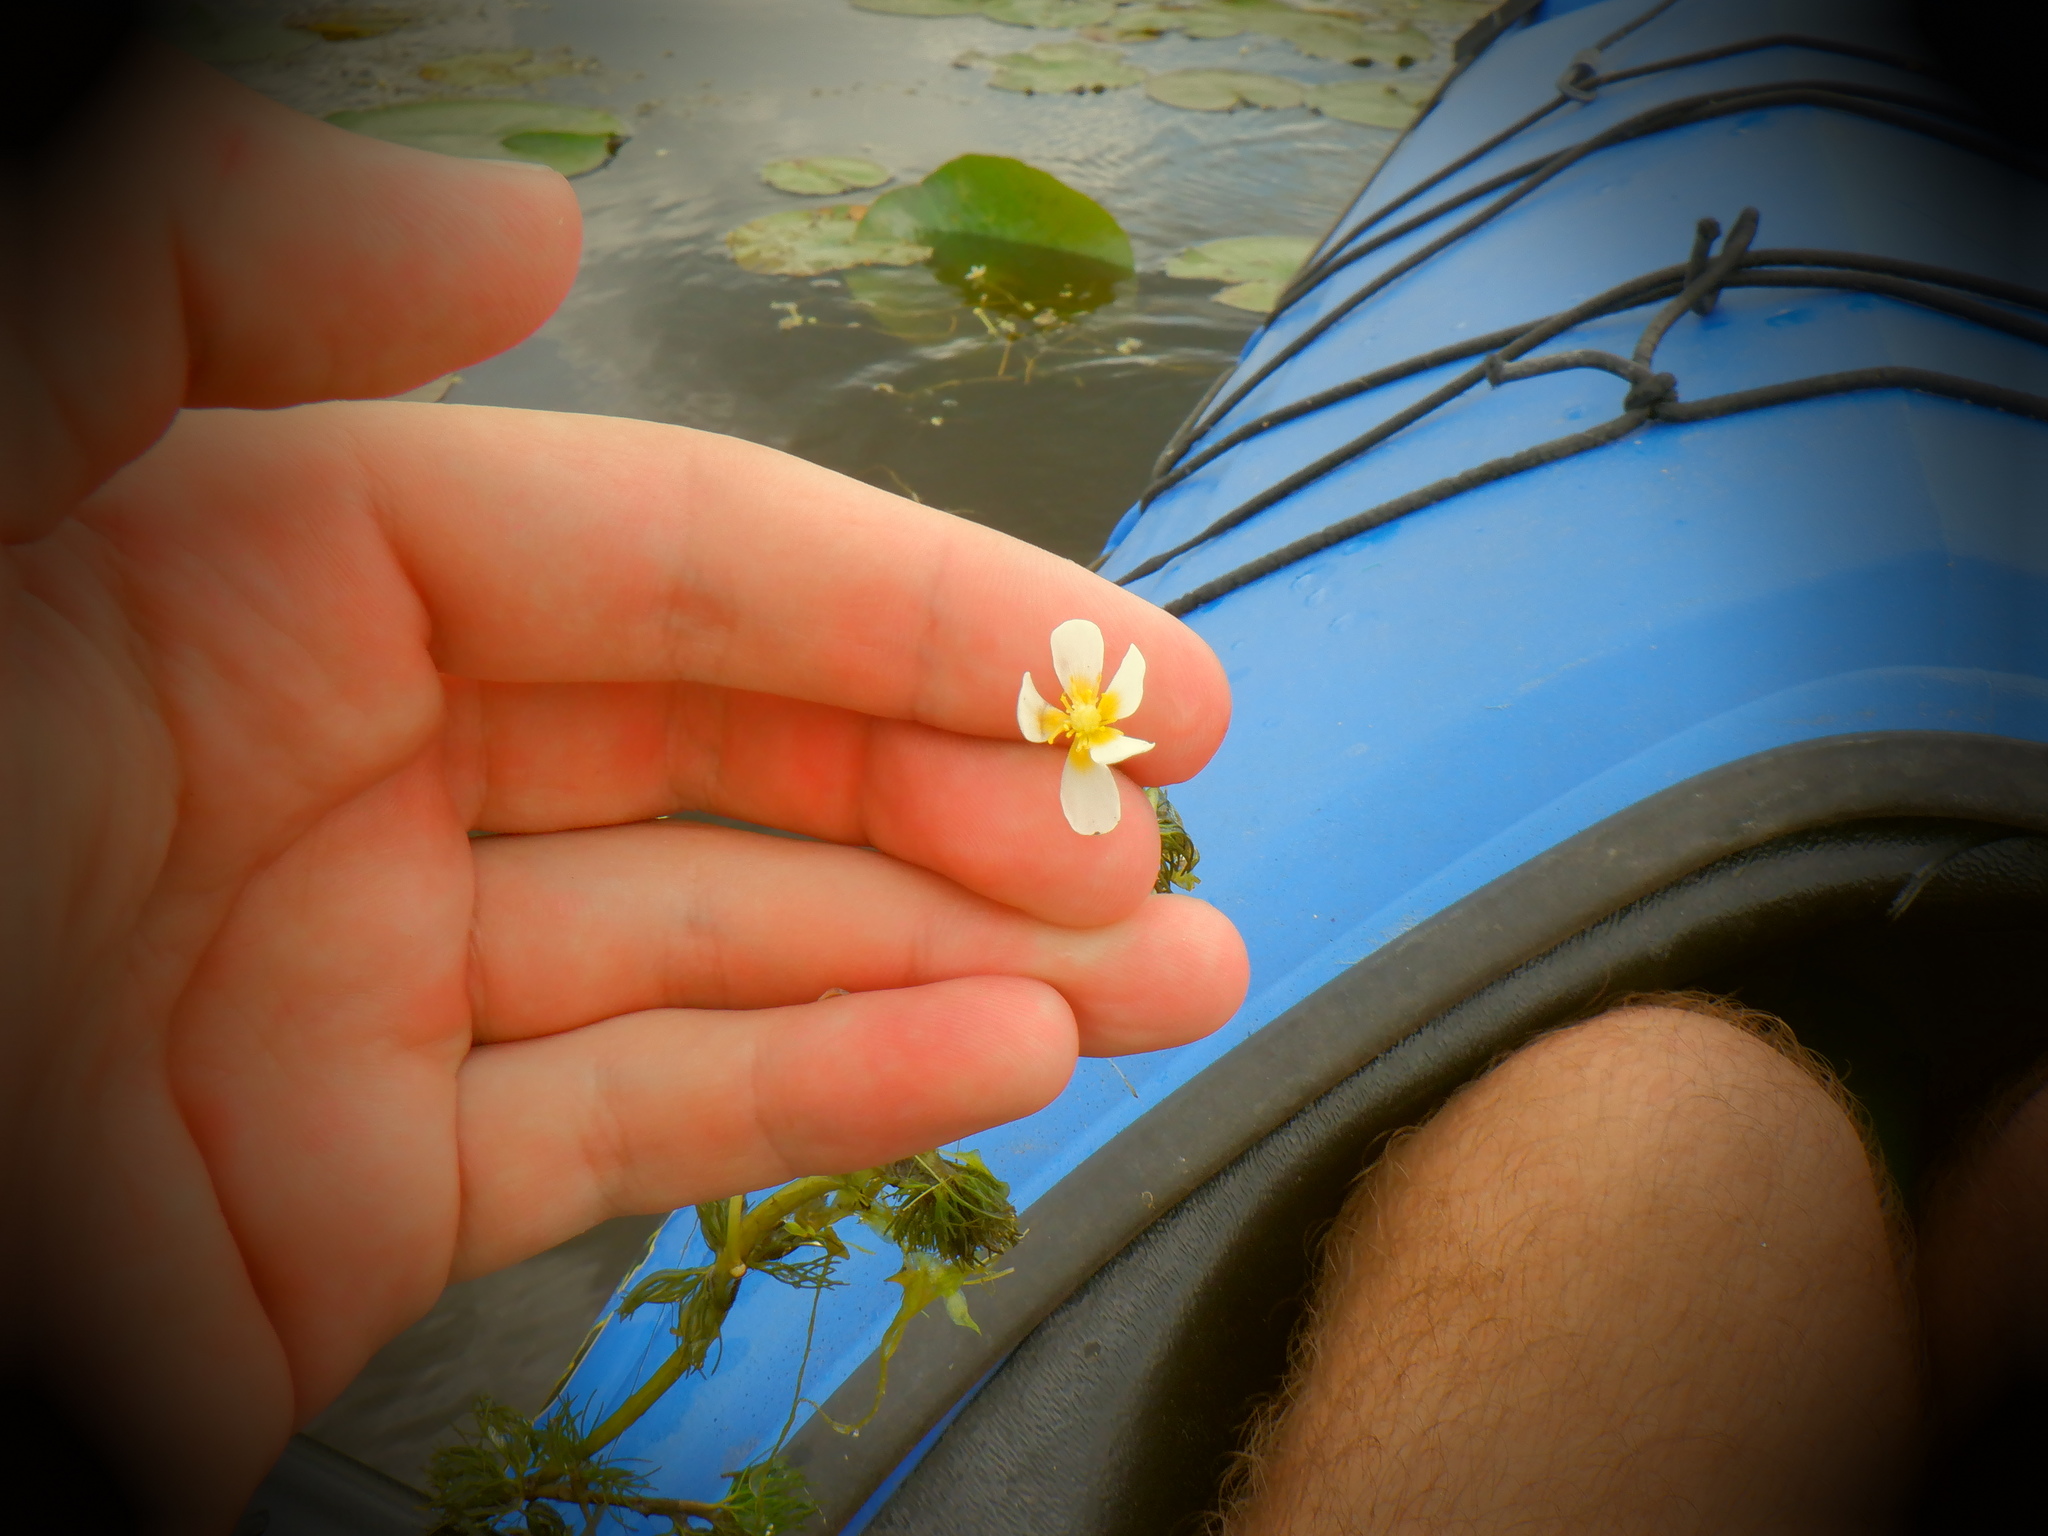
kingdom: Plantae
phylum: Tracheophyta
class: Magnoliopsida
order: Ranunculales
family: Ranunculaceae
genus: Ranunculus
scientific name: Ranunculus aquatilis
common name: Common water-crowfoot
